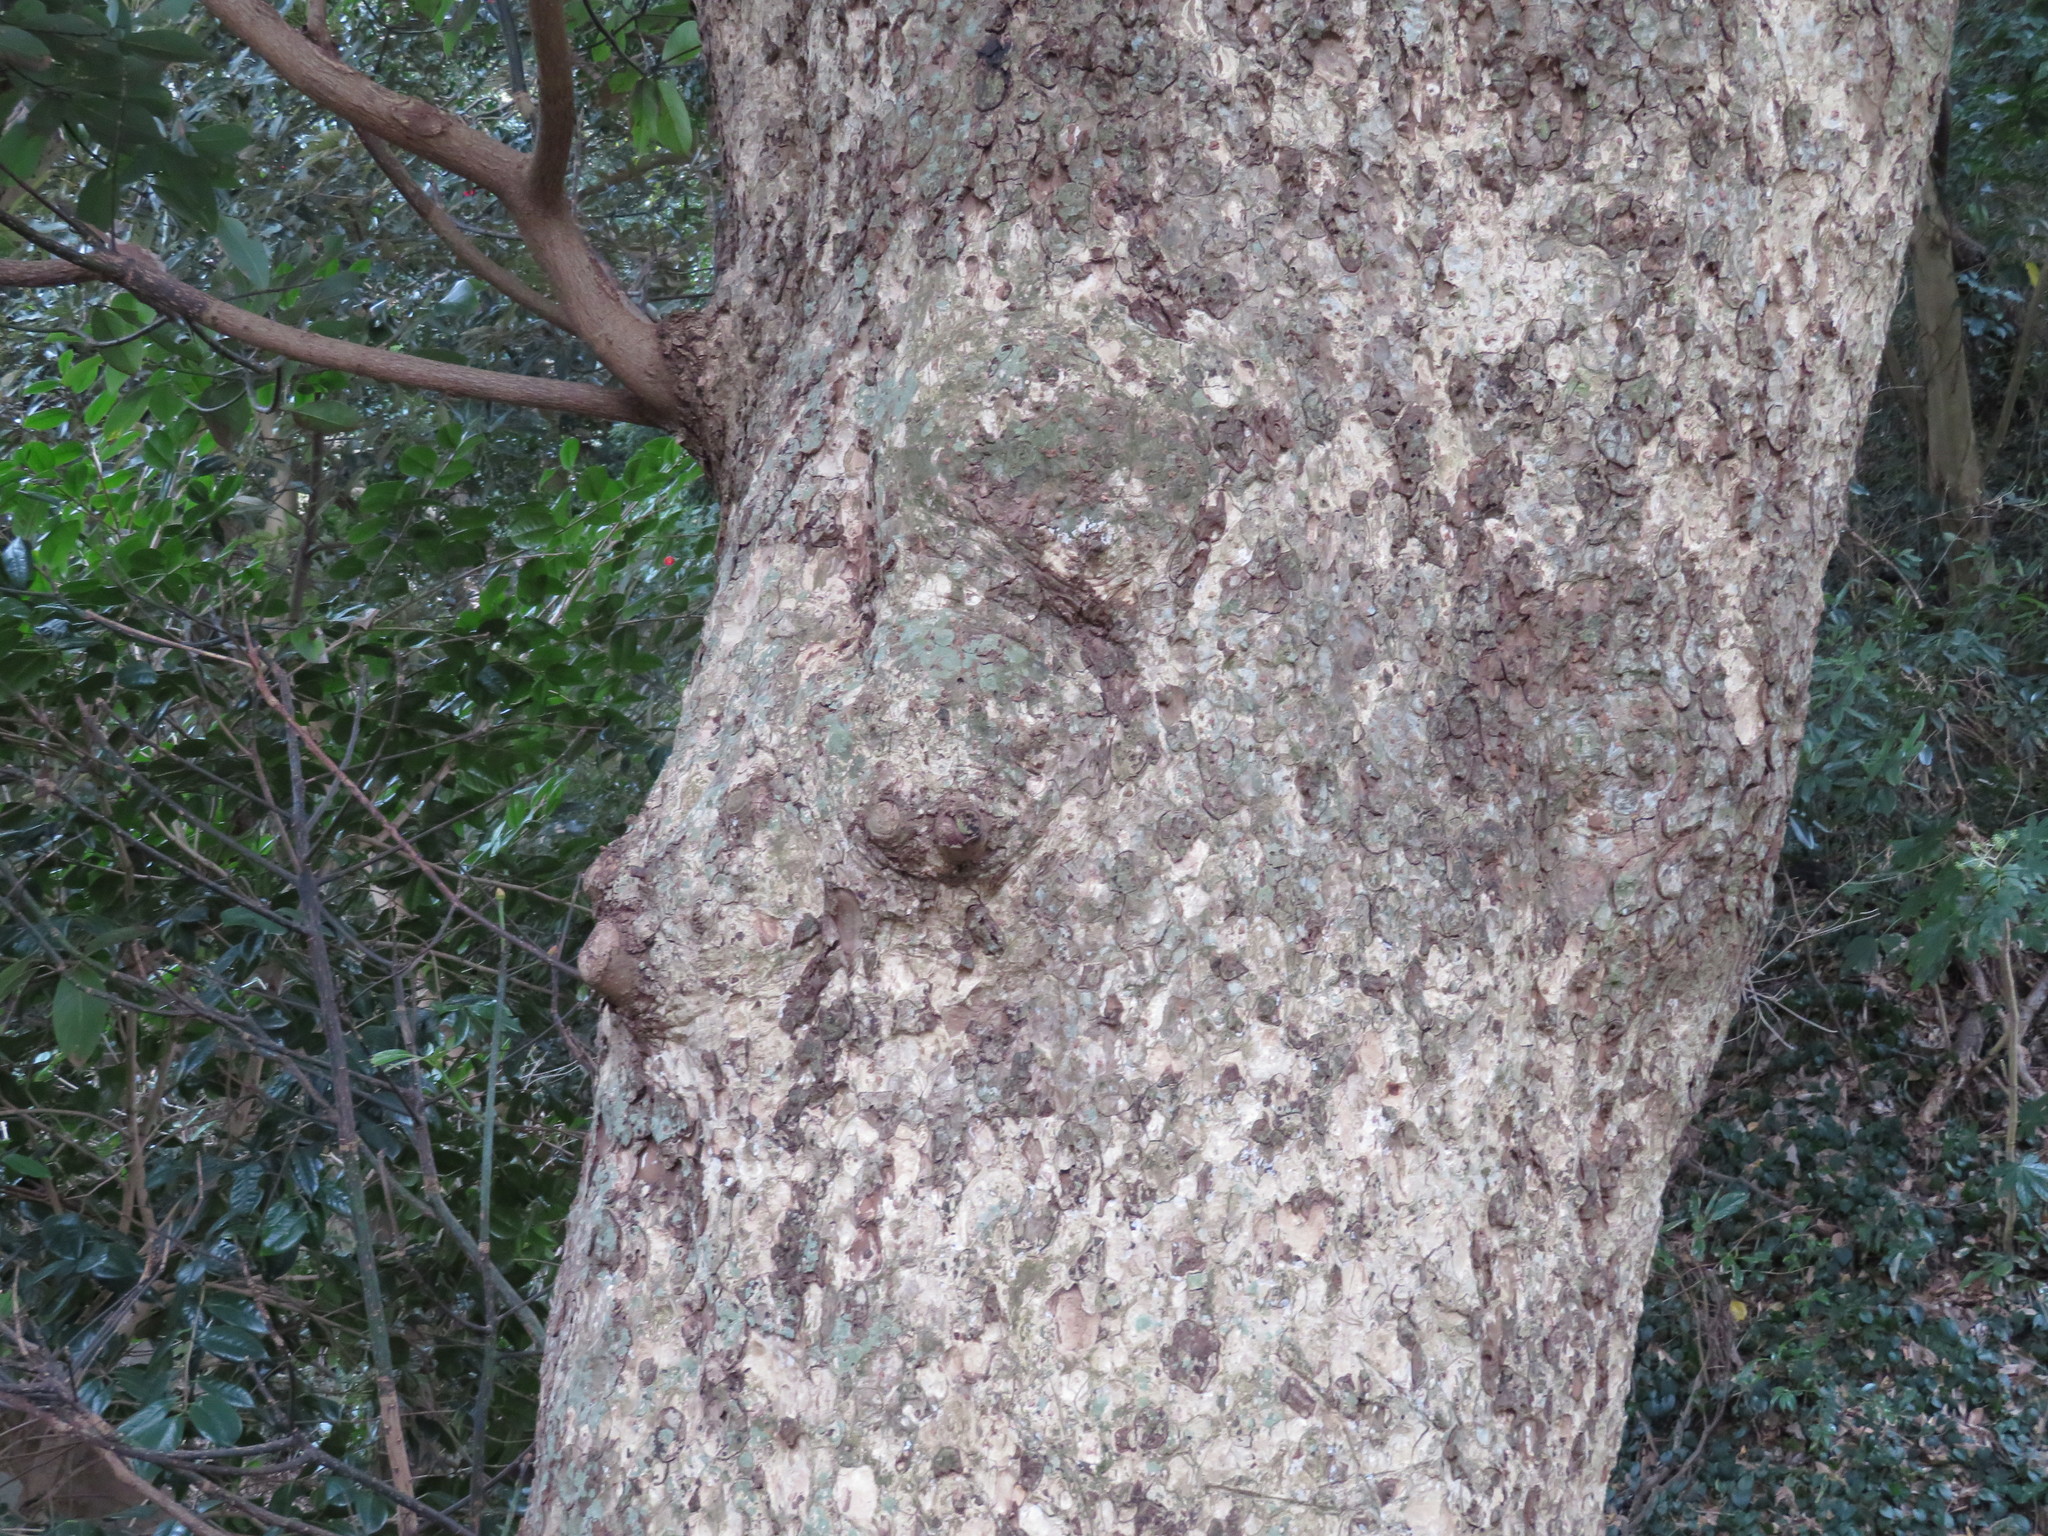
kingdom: Plantae
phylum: Tracheophyta
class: Magnoliopsida
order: Laurales
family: Lauraceae
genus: Machilus
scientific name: Machilus thunbergii
